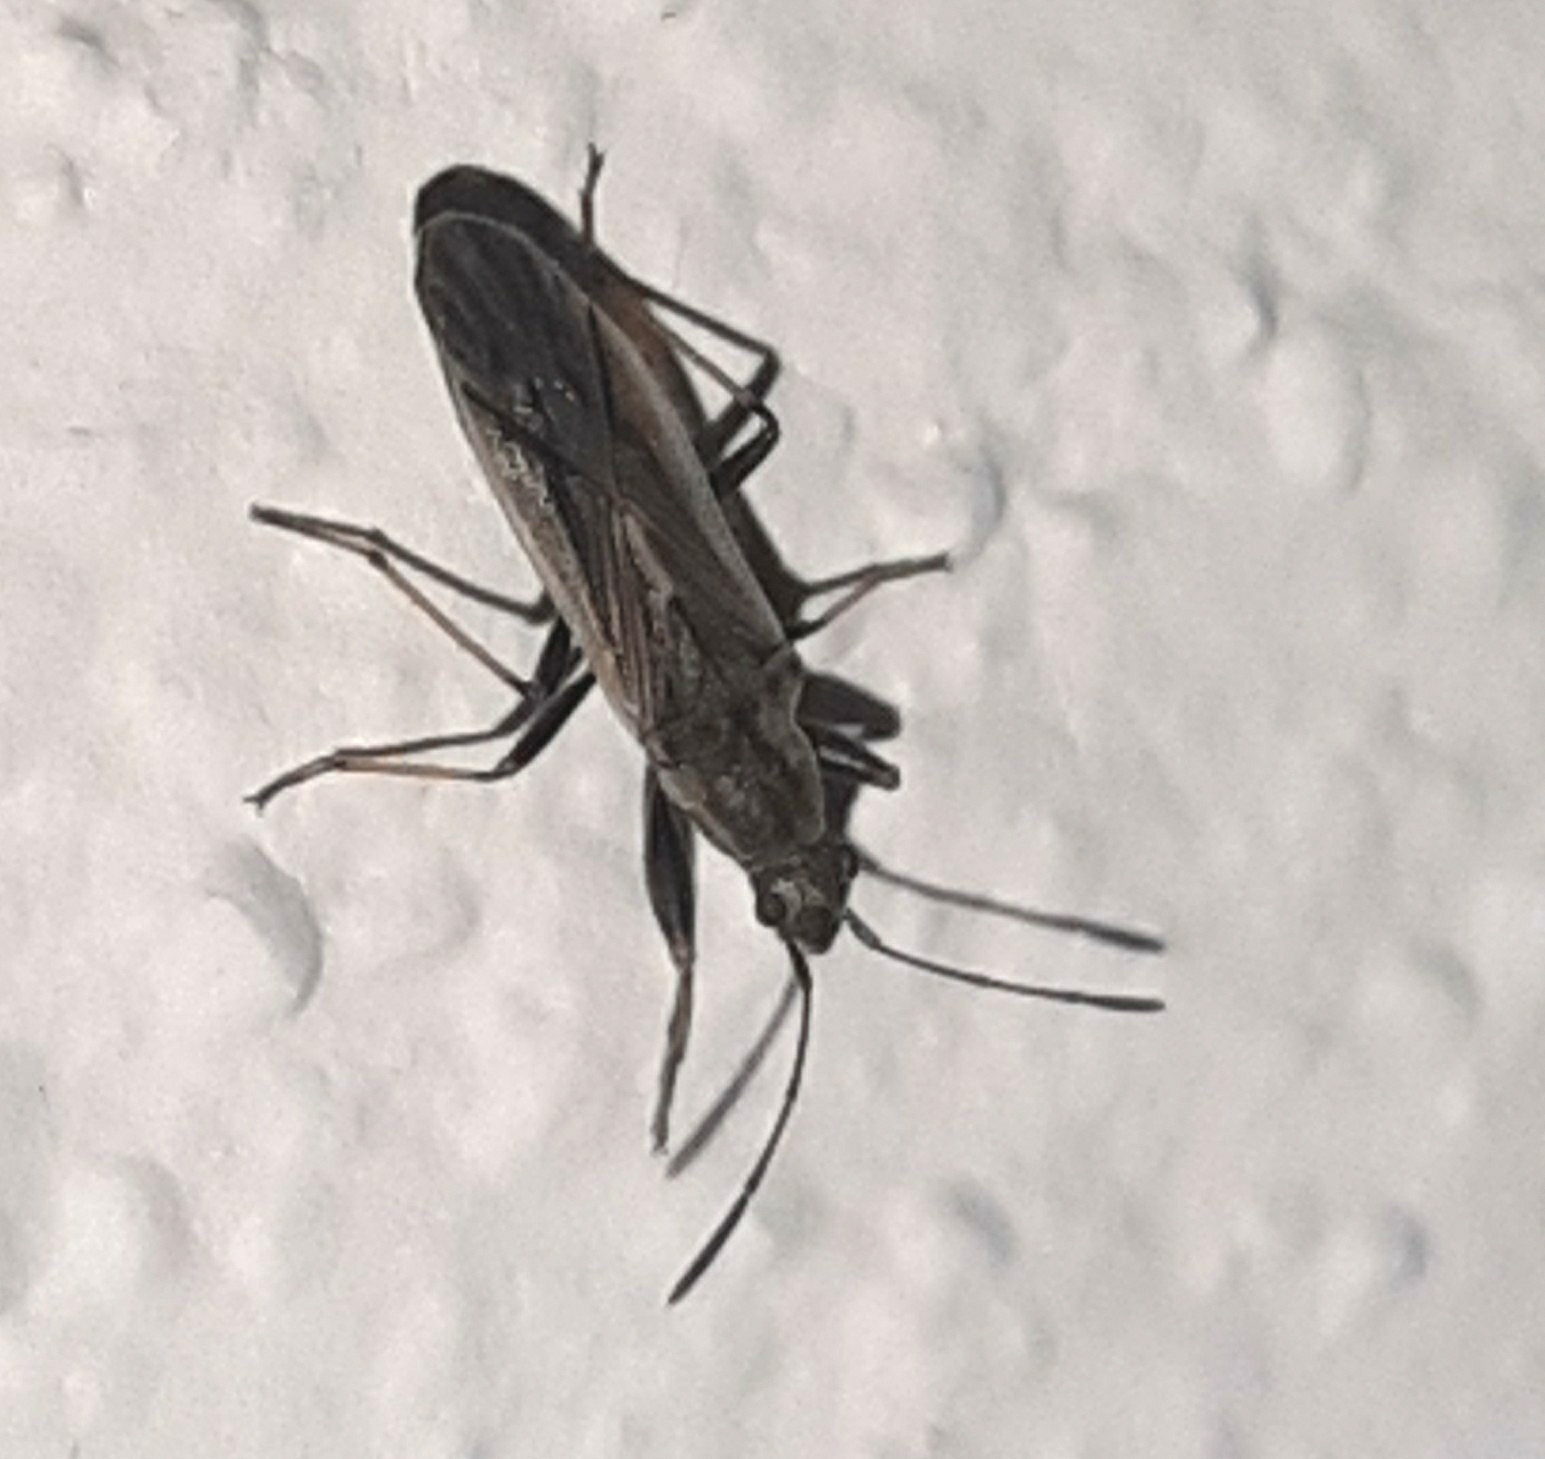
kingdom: Animalia
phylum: Arthropoda
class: Insecta
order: Hemiptera
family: Rhyparochromidae
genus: Paromius
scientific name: Paromius longulus
